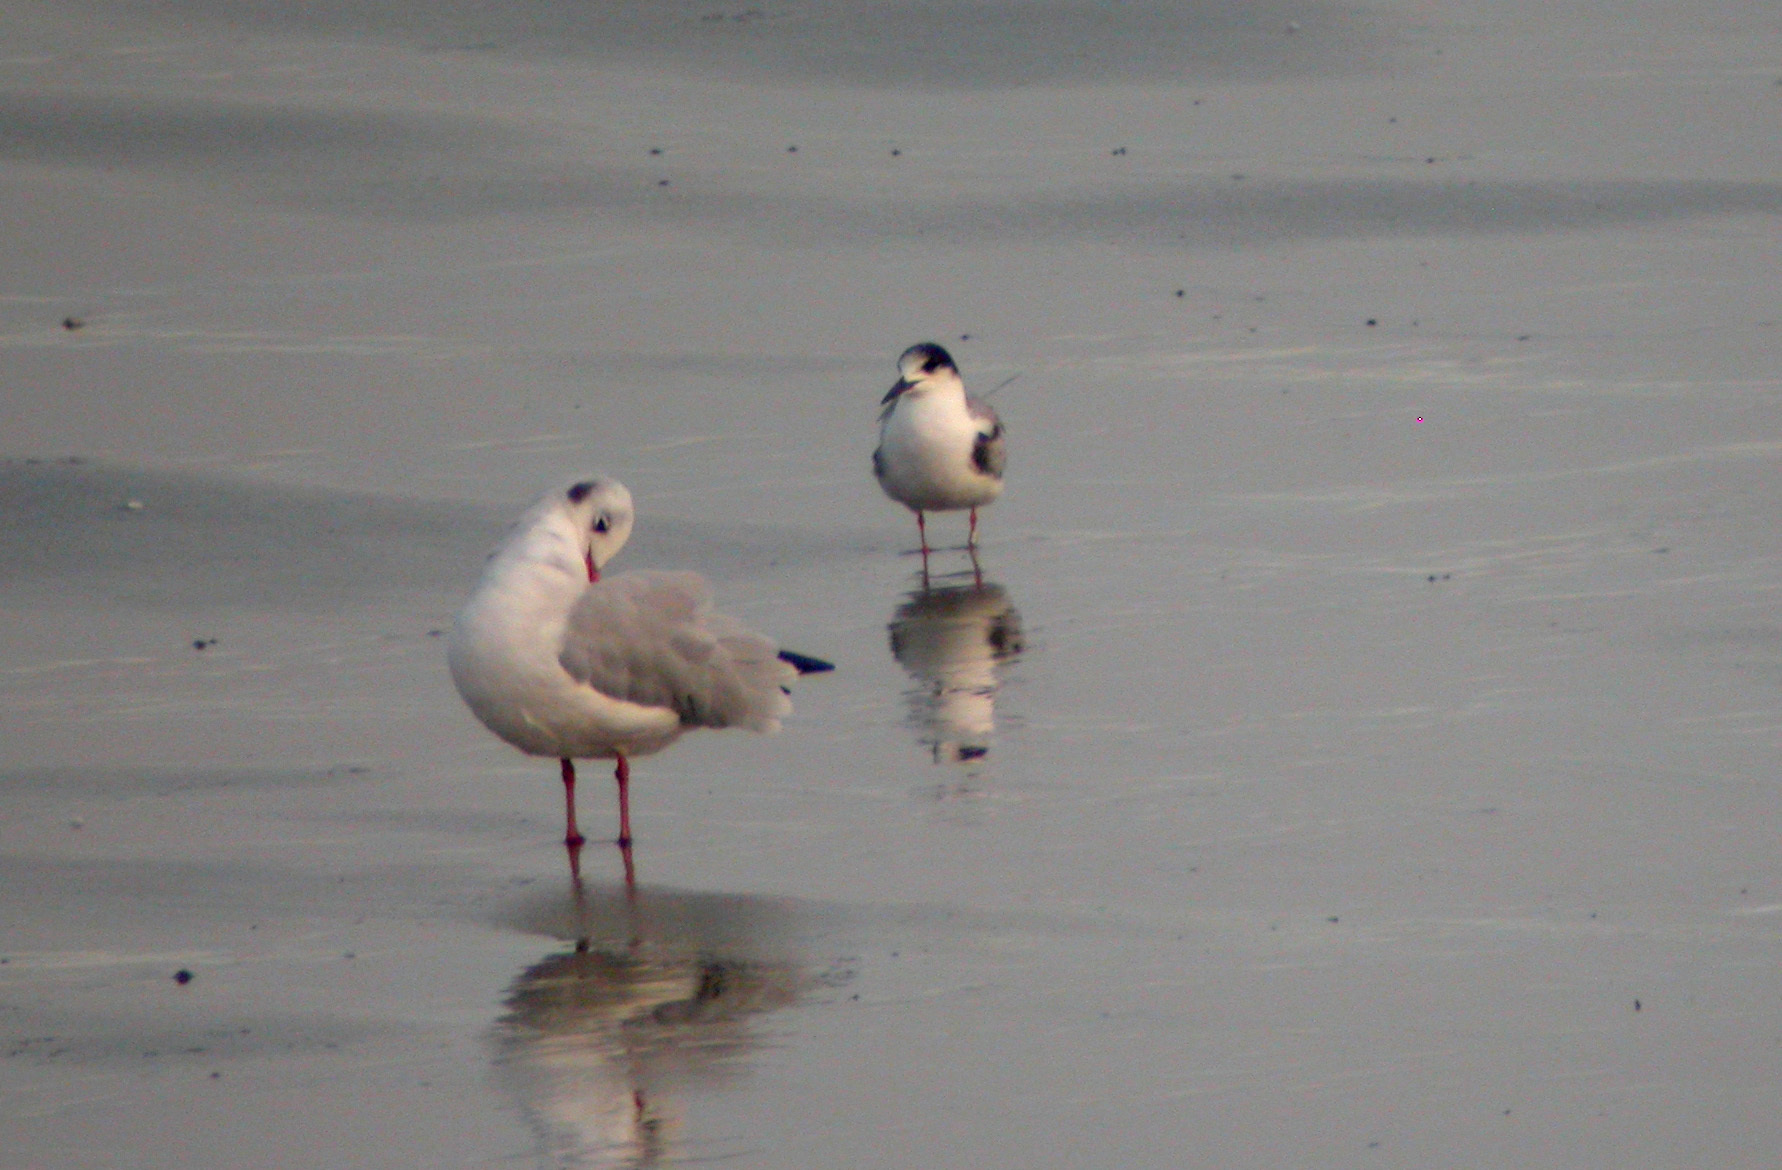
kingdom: Animalia
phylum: Chordata
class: Aves
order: Charadriiformes
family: Laridae
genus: Sterna
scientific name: Sterna hirundo
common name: Common tern
